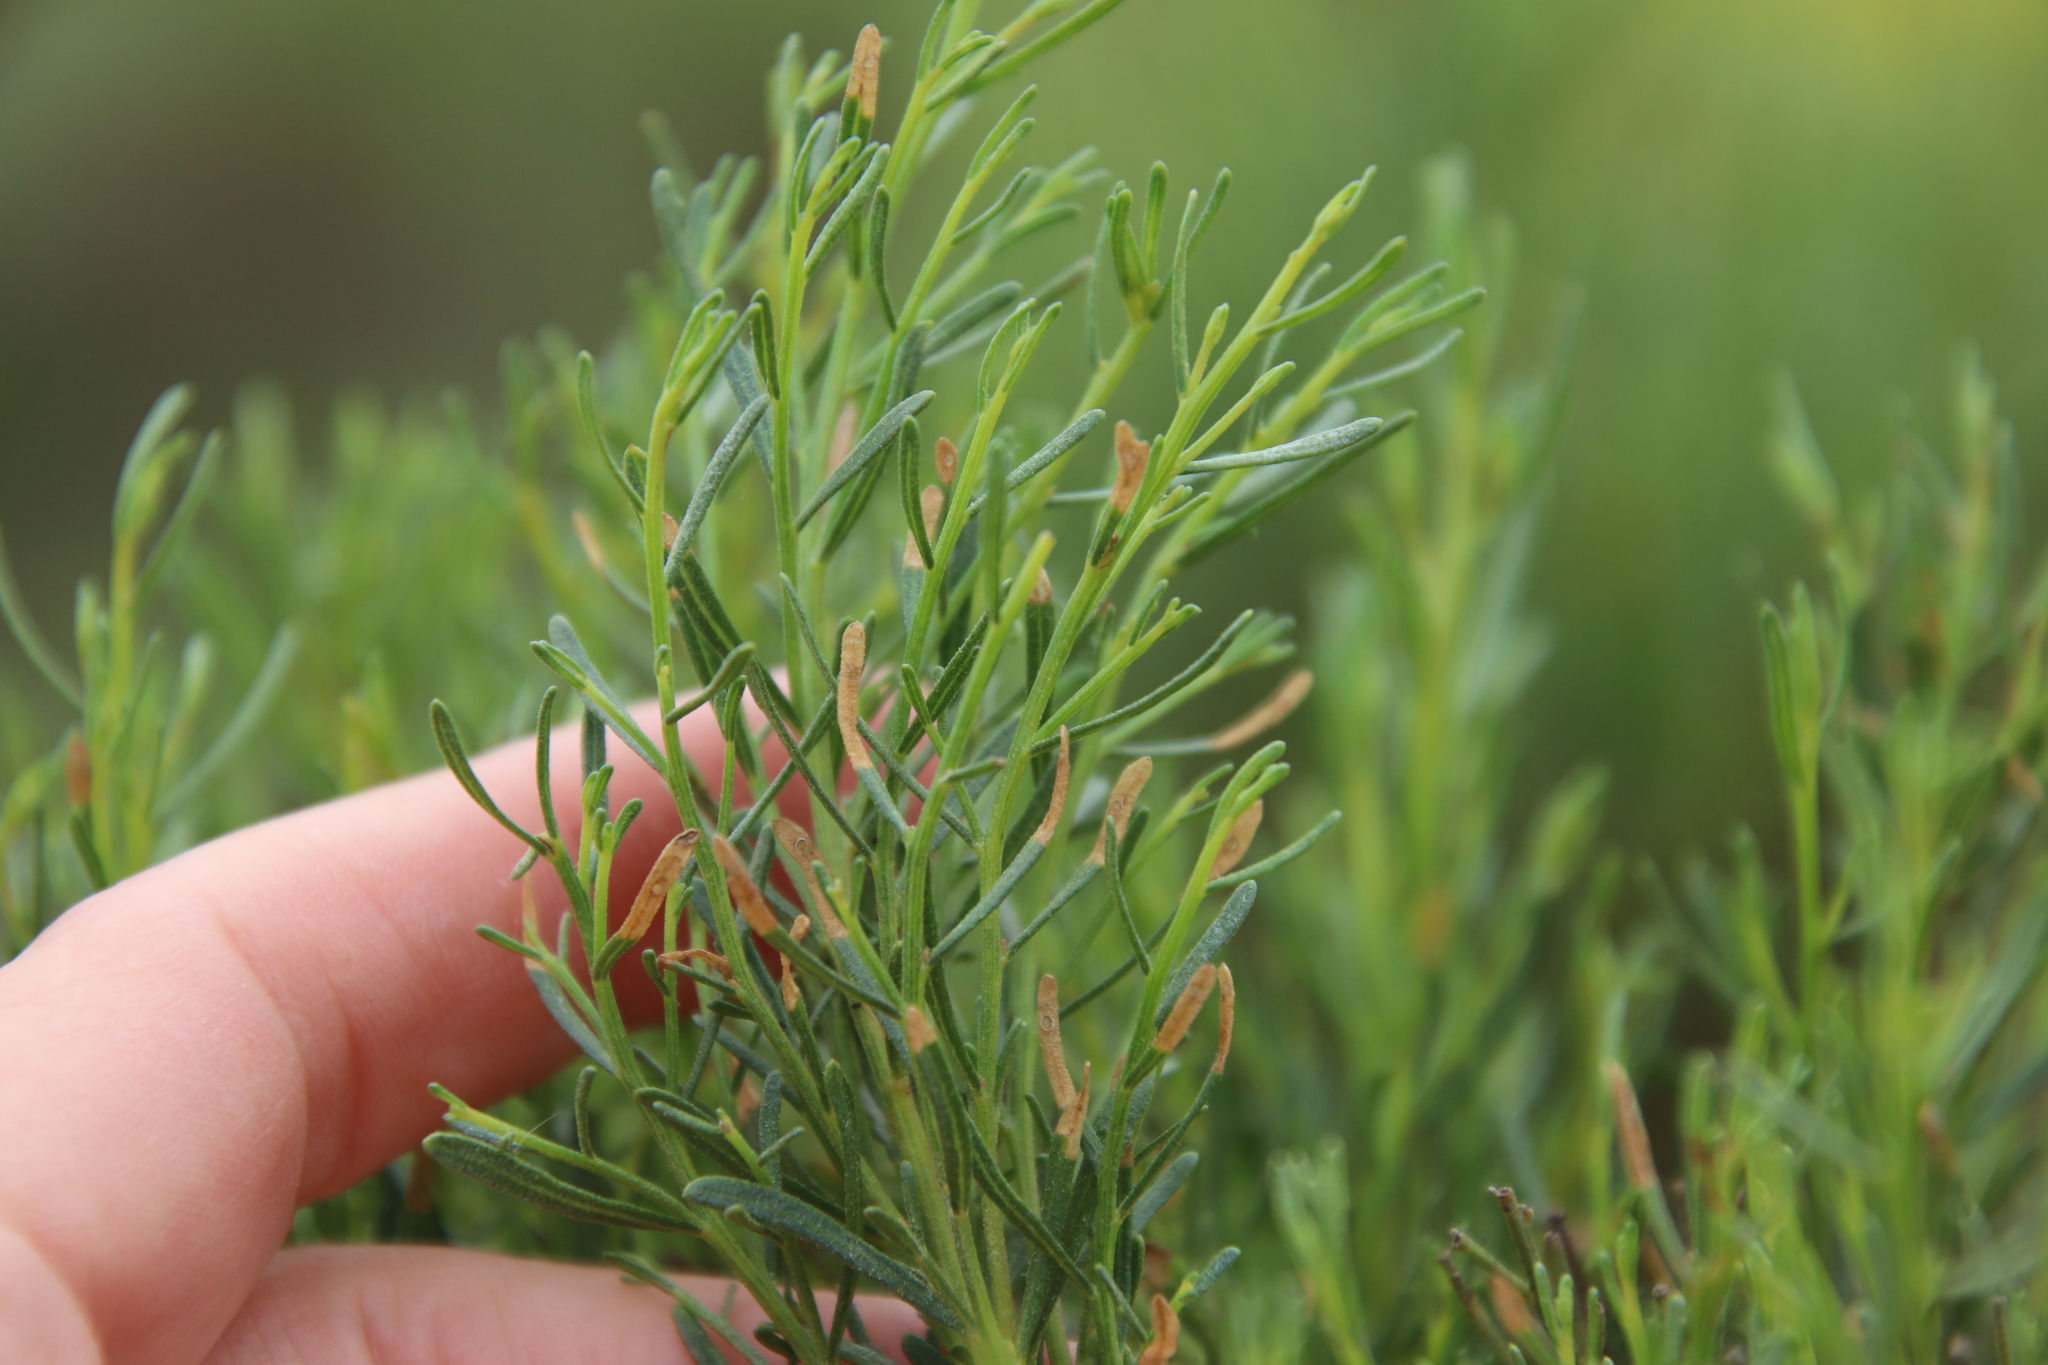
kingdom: Plantae
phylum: Tracheophyta
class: Magnoliopsida
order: Asterales
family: Asteraceae
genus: Baccharis
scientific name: Baccharis sarothroides
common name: Desert-broom
